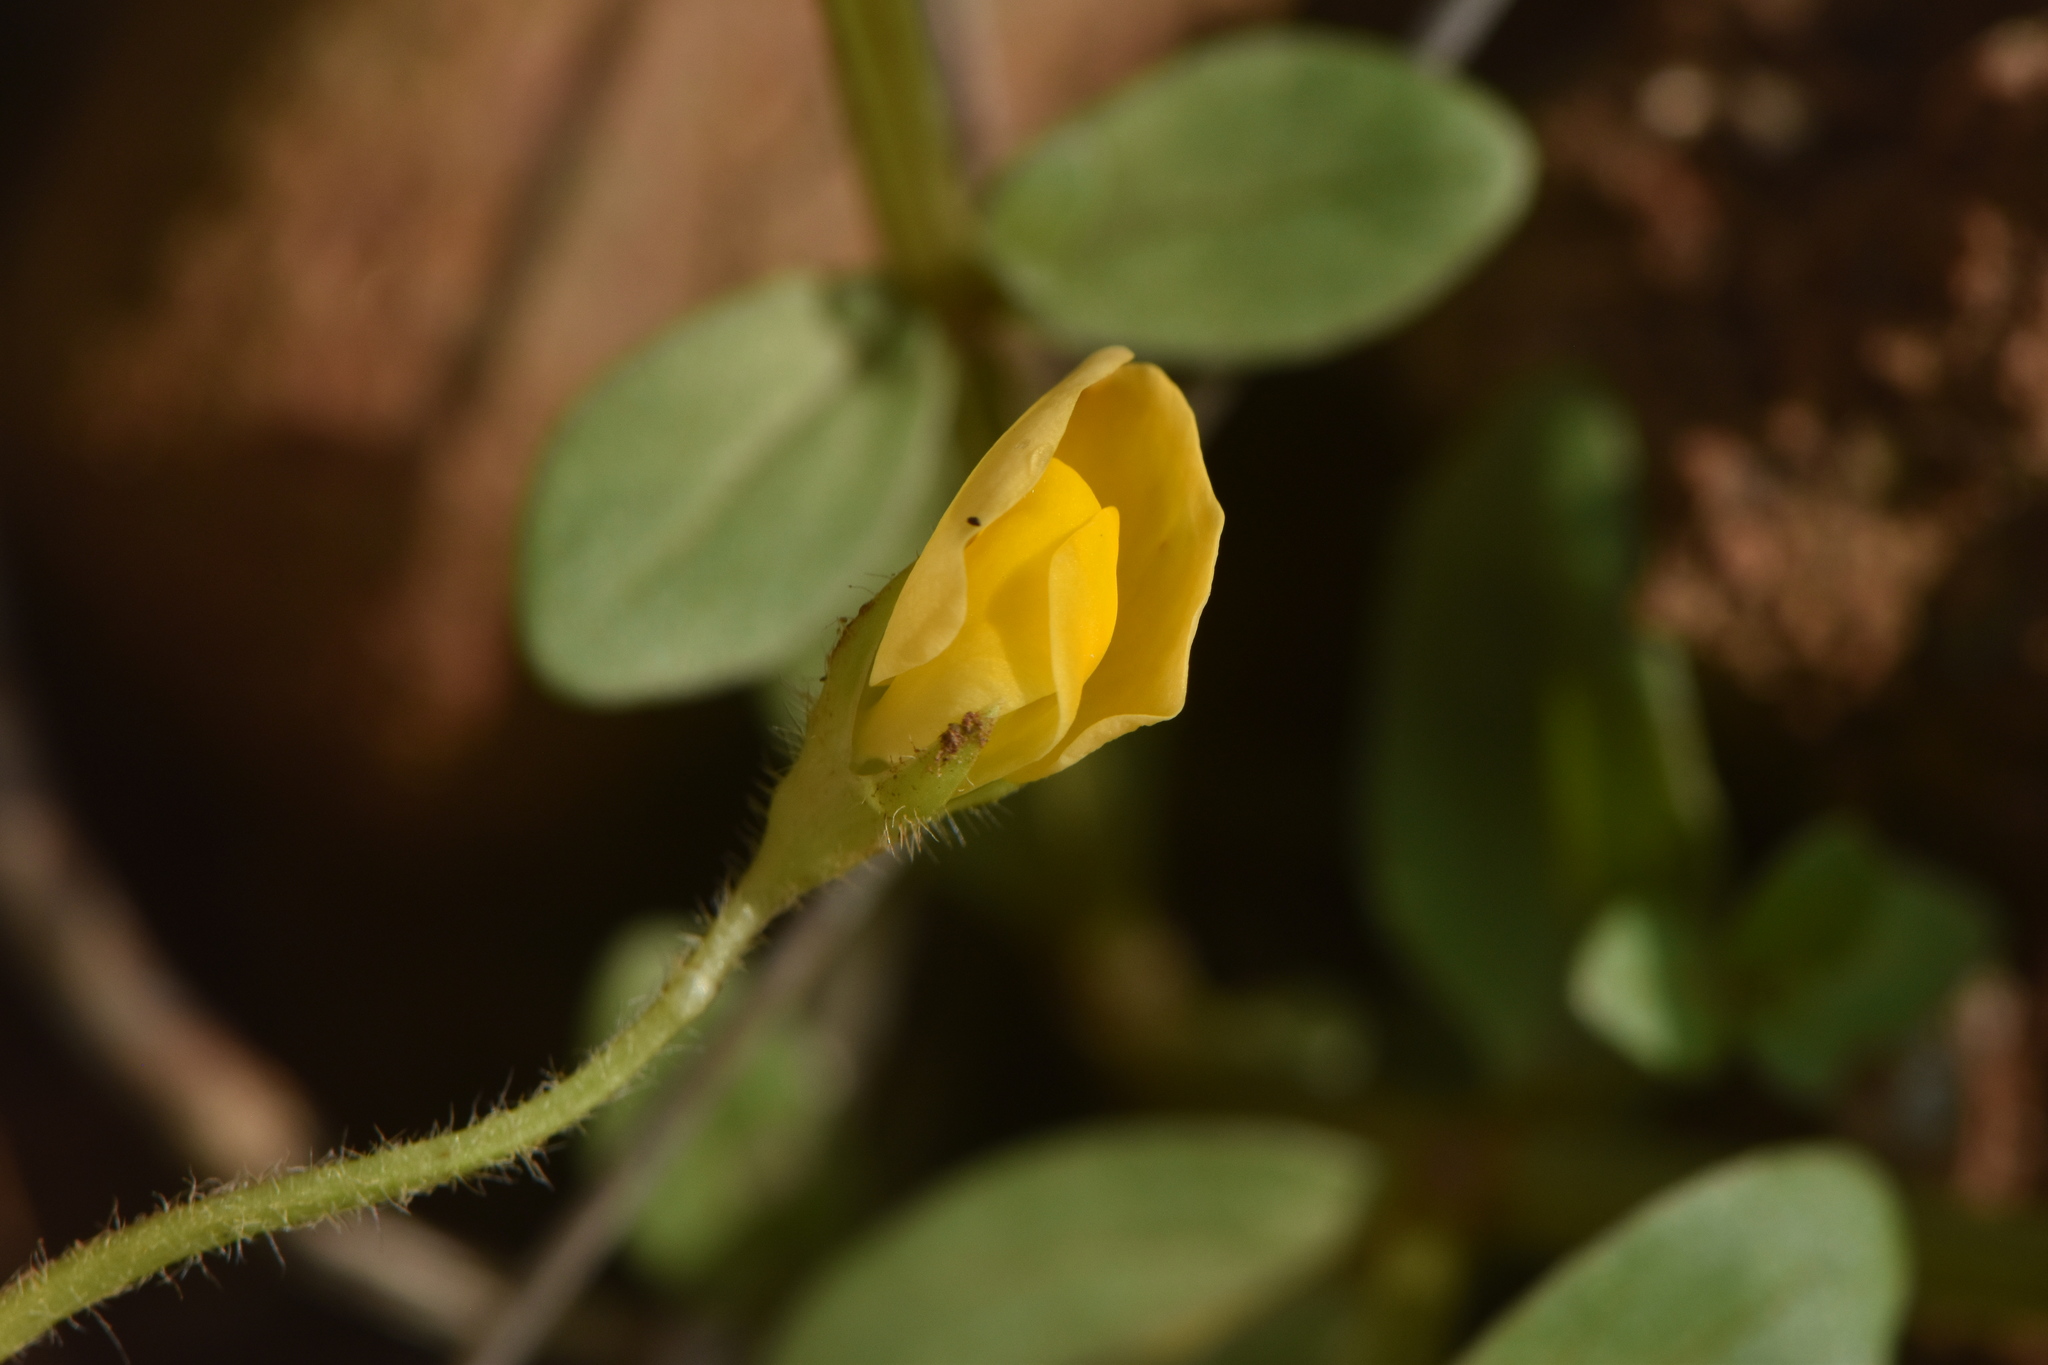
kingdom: Plantae
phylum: Tracheophyta
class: Magnoliopsida
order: Fabales
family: Fabaceae
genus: Scorpiurus
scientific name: Scorpiurus vermiculatus
